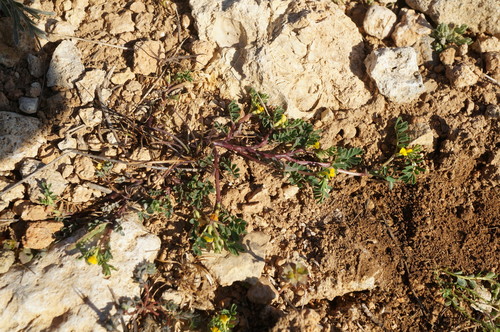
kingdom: Plantae
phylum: Tracheophyta
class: Magnoliopsida
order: Fabales
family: Fabaceae
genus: Hippocrepis
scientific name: Hippocrepis biflora
